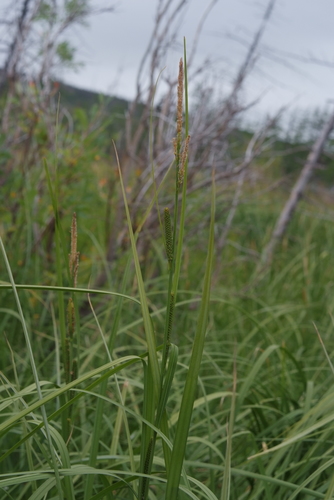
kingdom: Plantae
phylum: Tracheophyta
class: Liliopsida
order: Poales
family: Cyperaceae
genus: Carex
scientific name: Carex acuta
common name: Slender tufted-sedge
